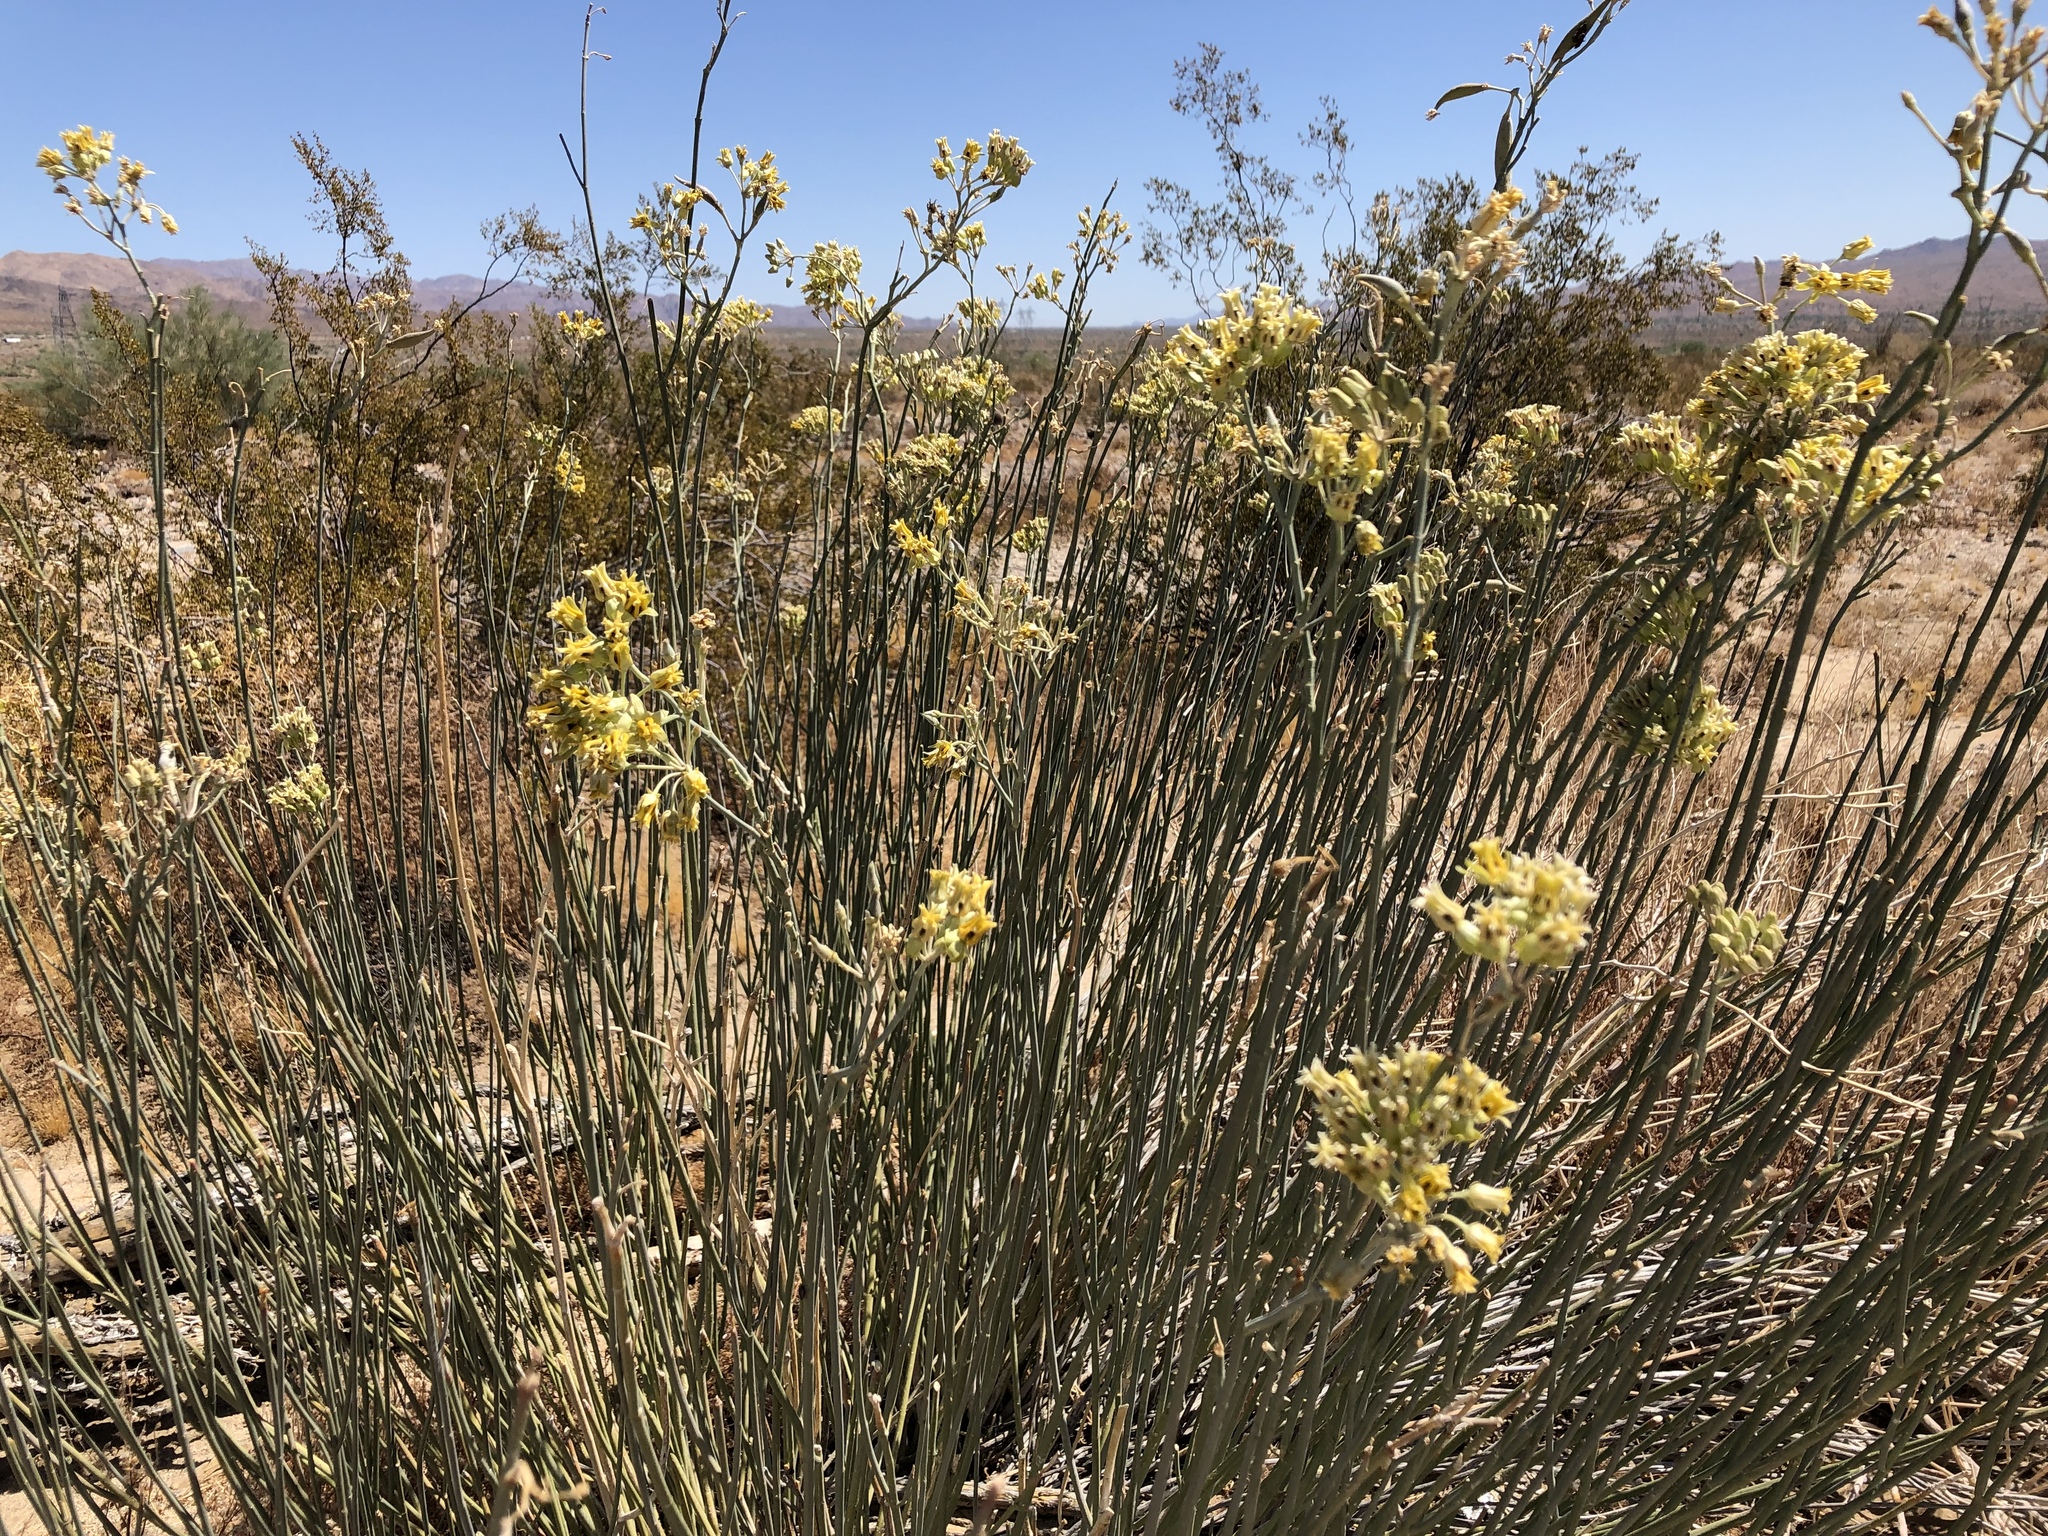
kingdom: Plantae
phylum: Tracheophyta
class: Magnoliopsida
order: Gentianales
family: Apocynaceae
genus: Asclepias
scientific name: Asclepias subulata
